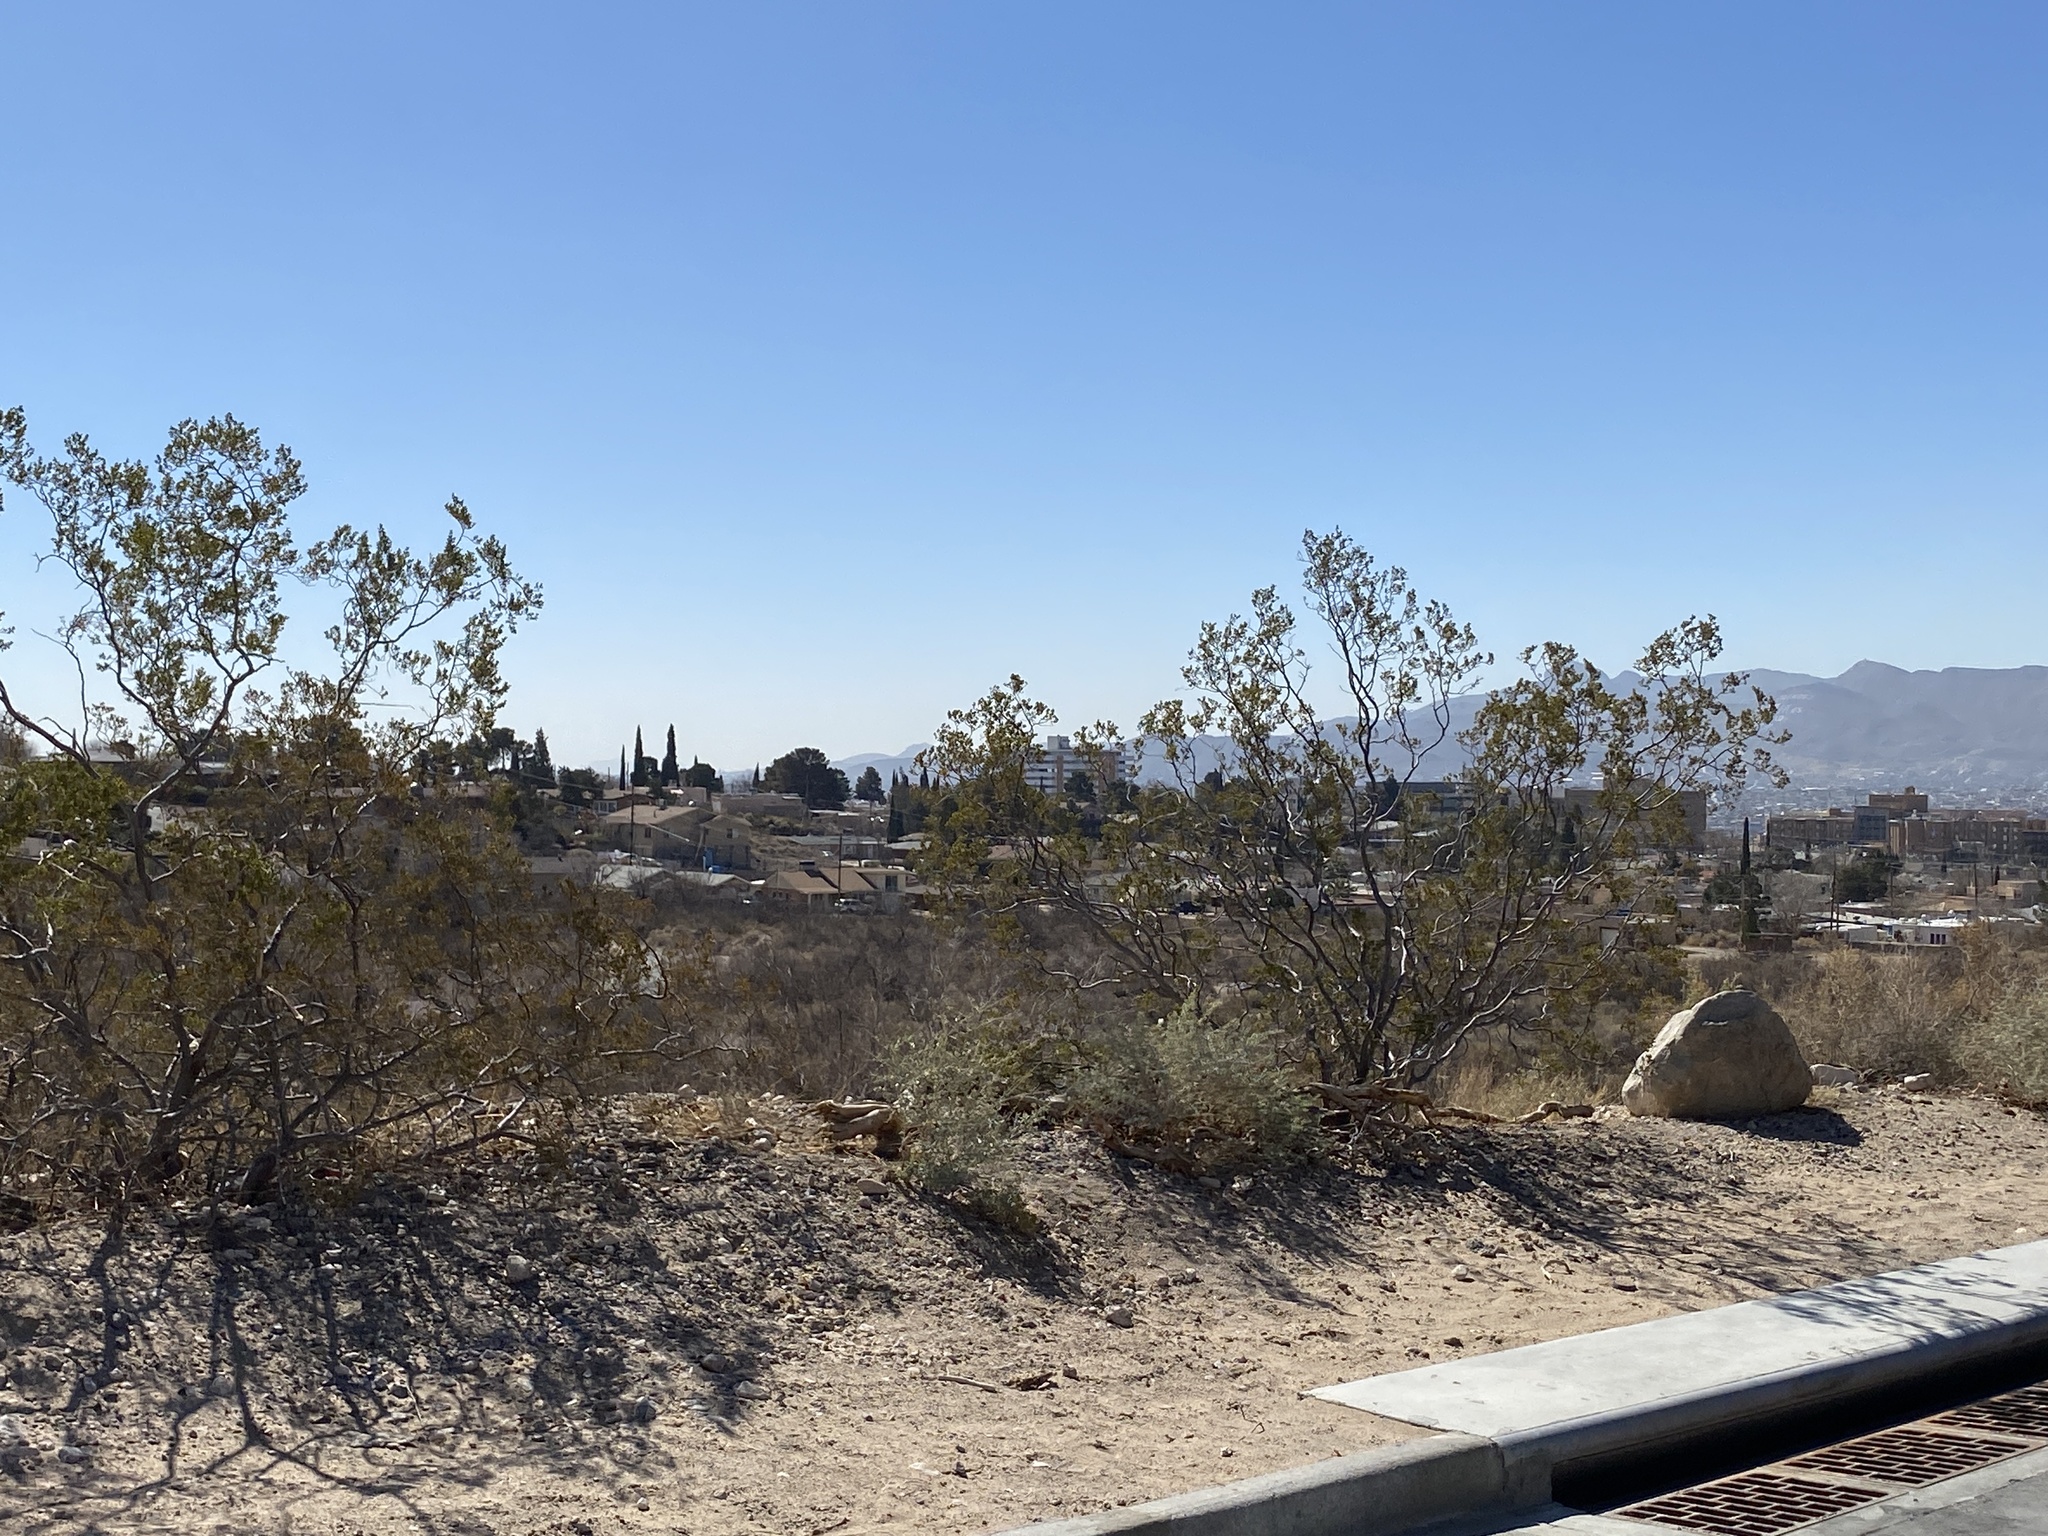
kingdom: Plantae
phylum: Tracheophyta
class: Magnoliopsida
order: Zygophyllales
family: Zygophyllaceae
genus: Larrea
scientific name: Larrea tridentata
